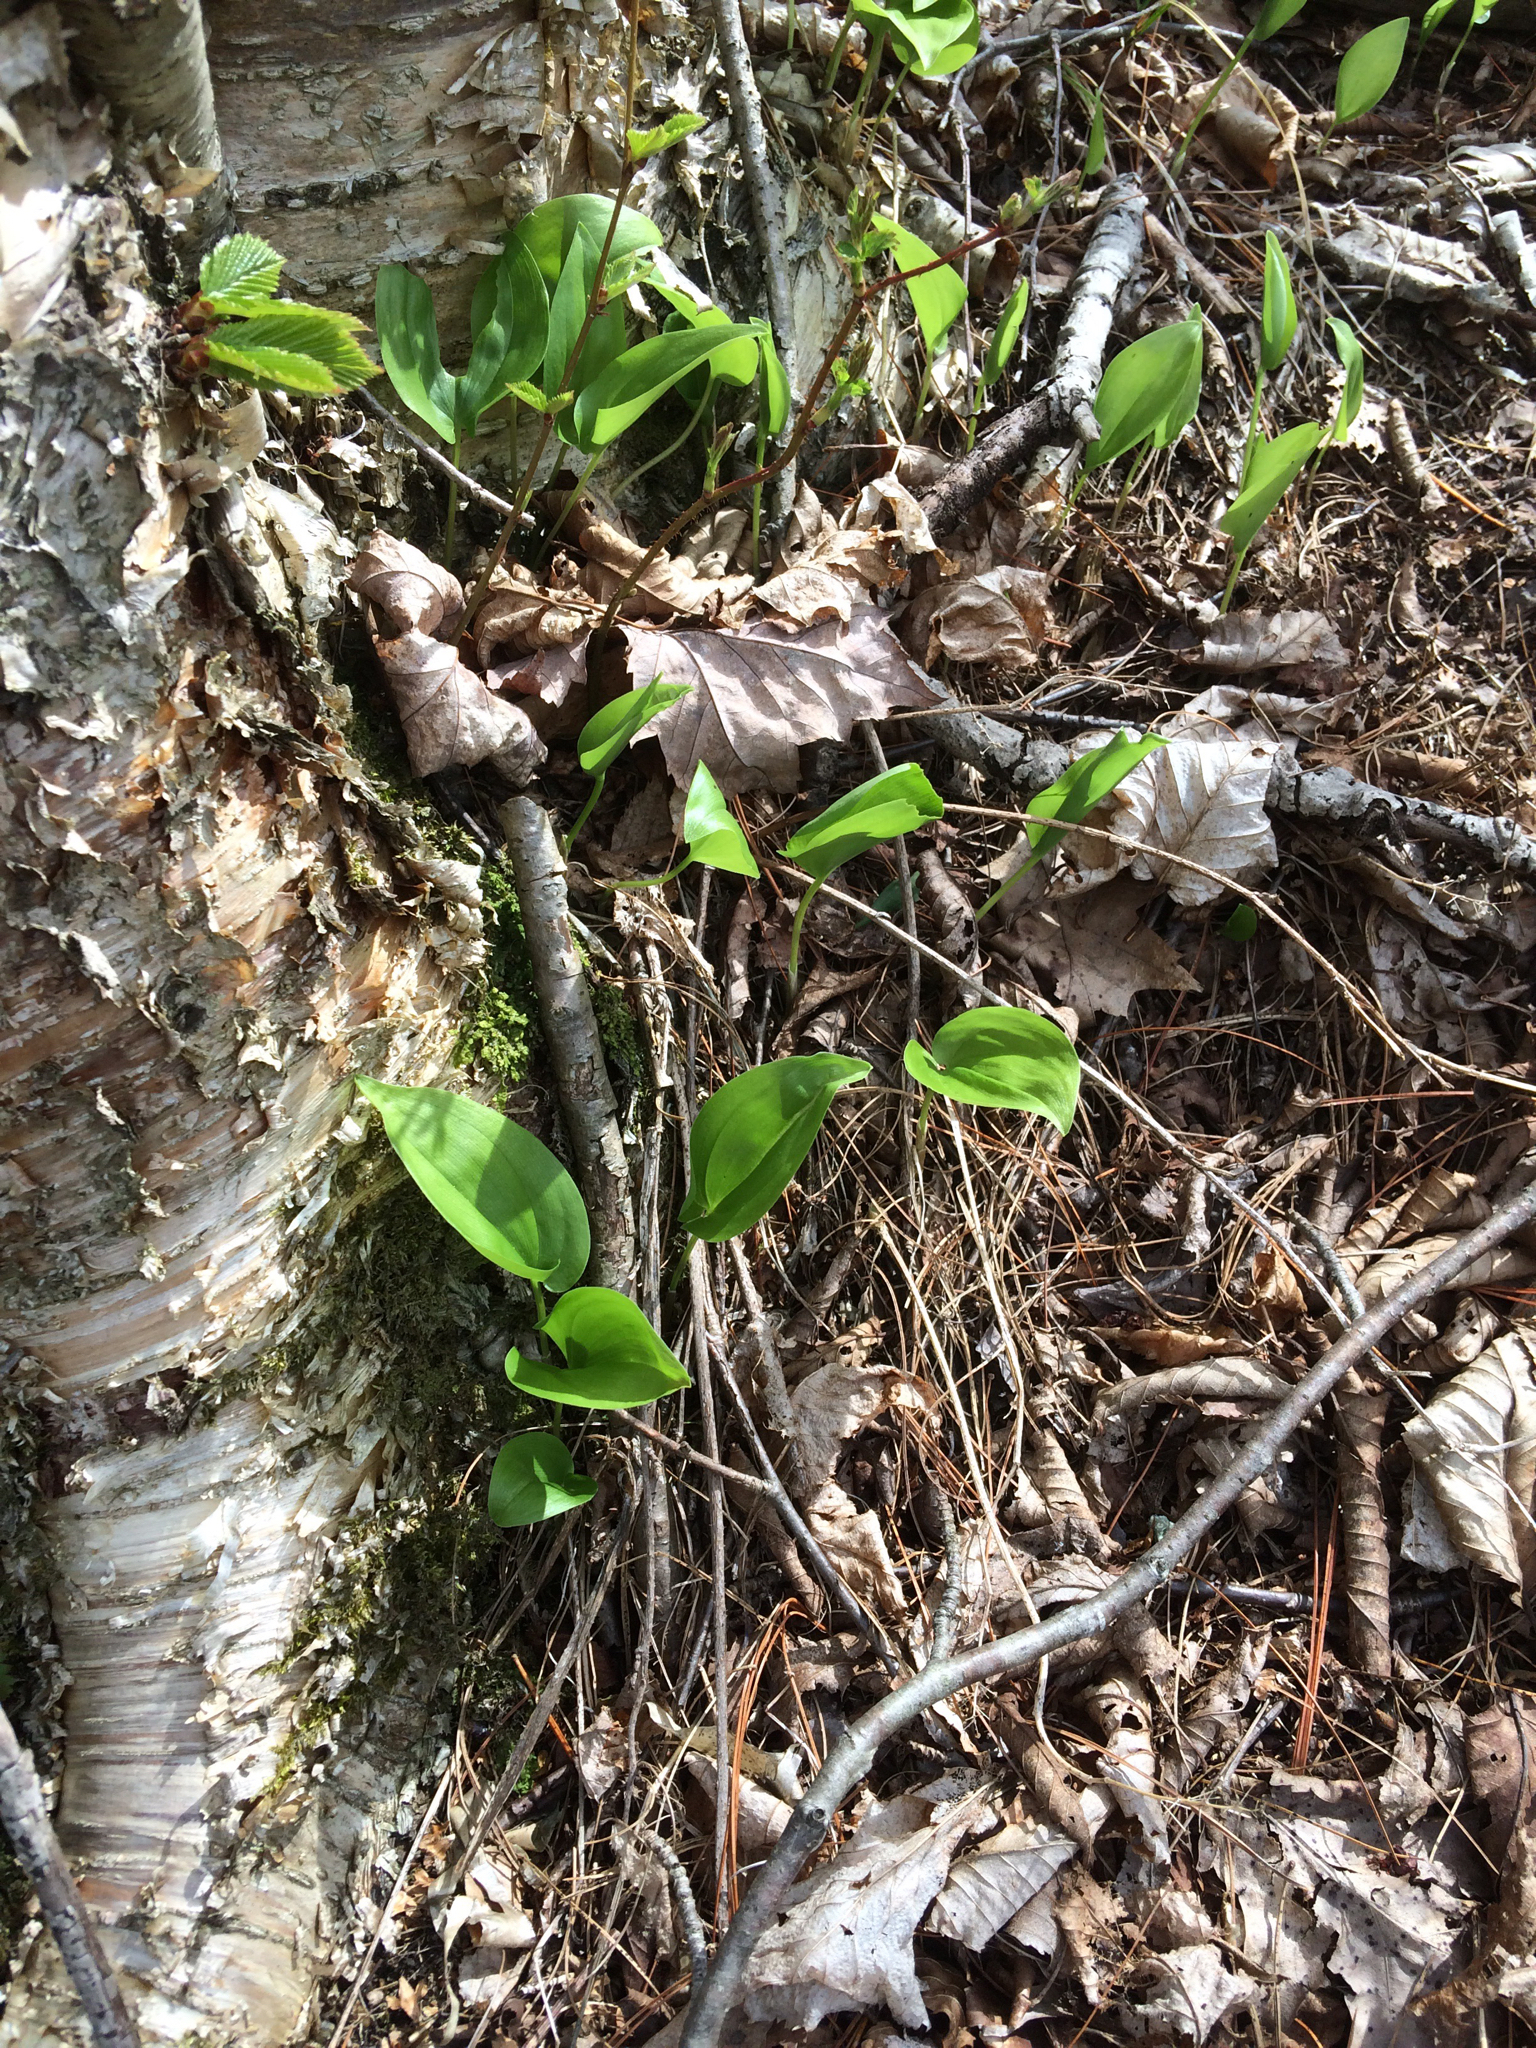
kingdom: Plantae
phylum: Tracheophyta
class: Liliopsida
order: Asparagales
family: Asparagaceae
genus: Maianthemum
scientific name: Maianthemum canadense
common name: False lily-of-the-valley
